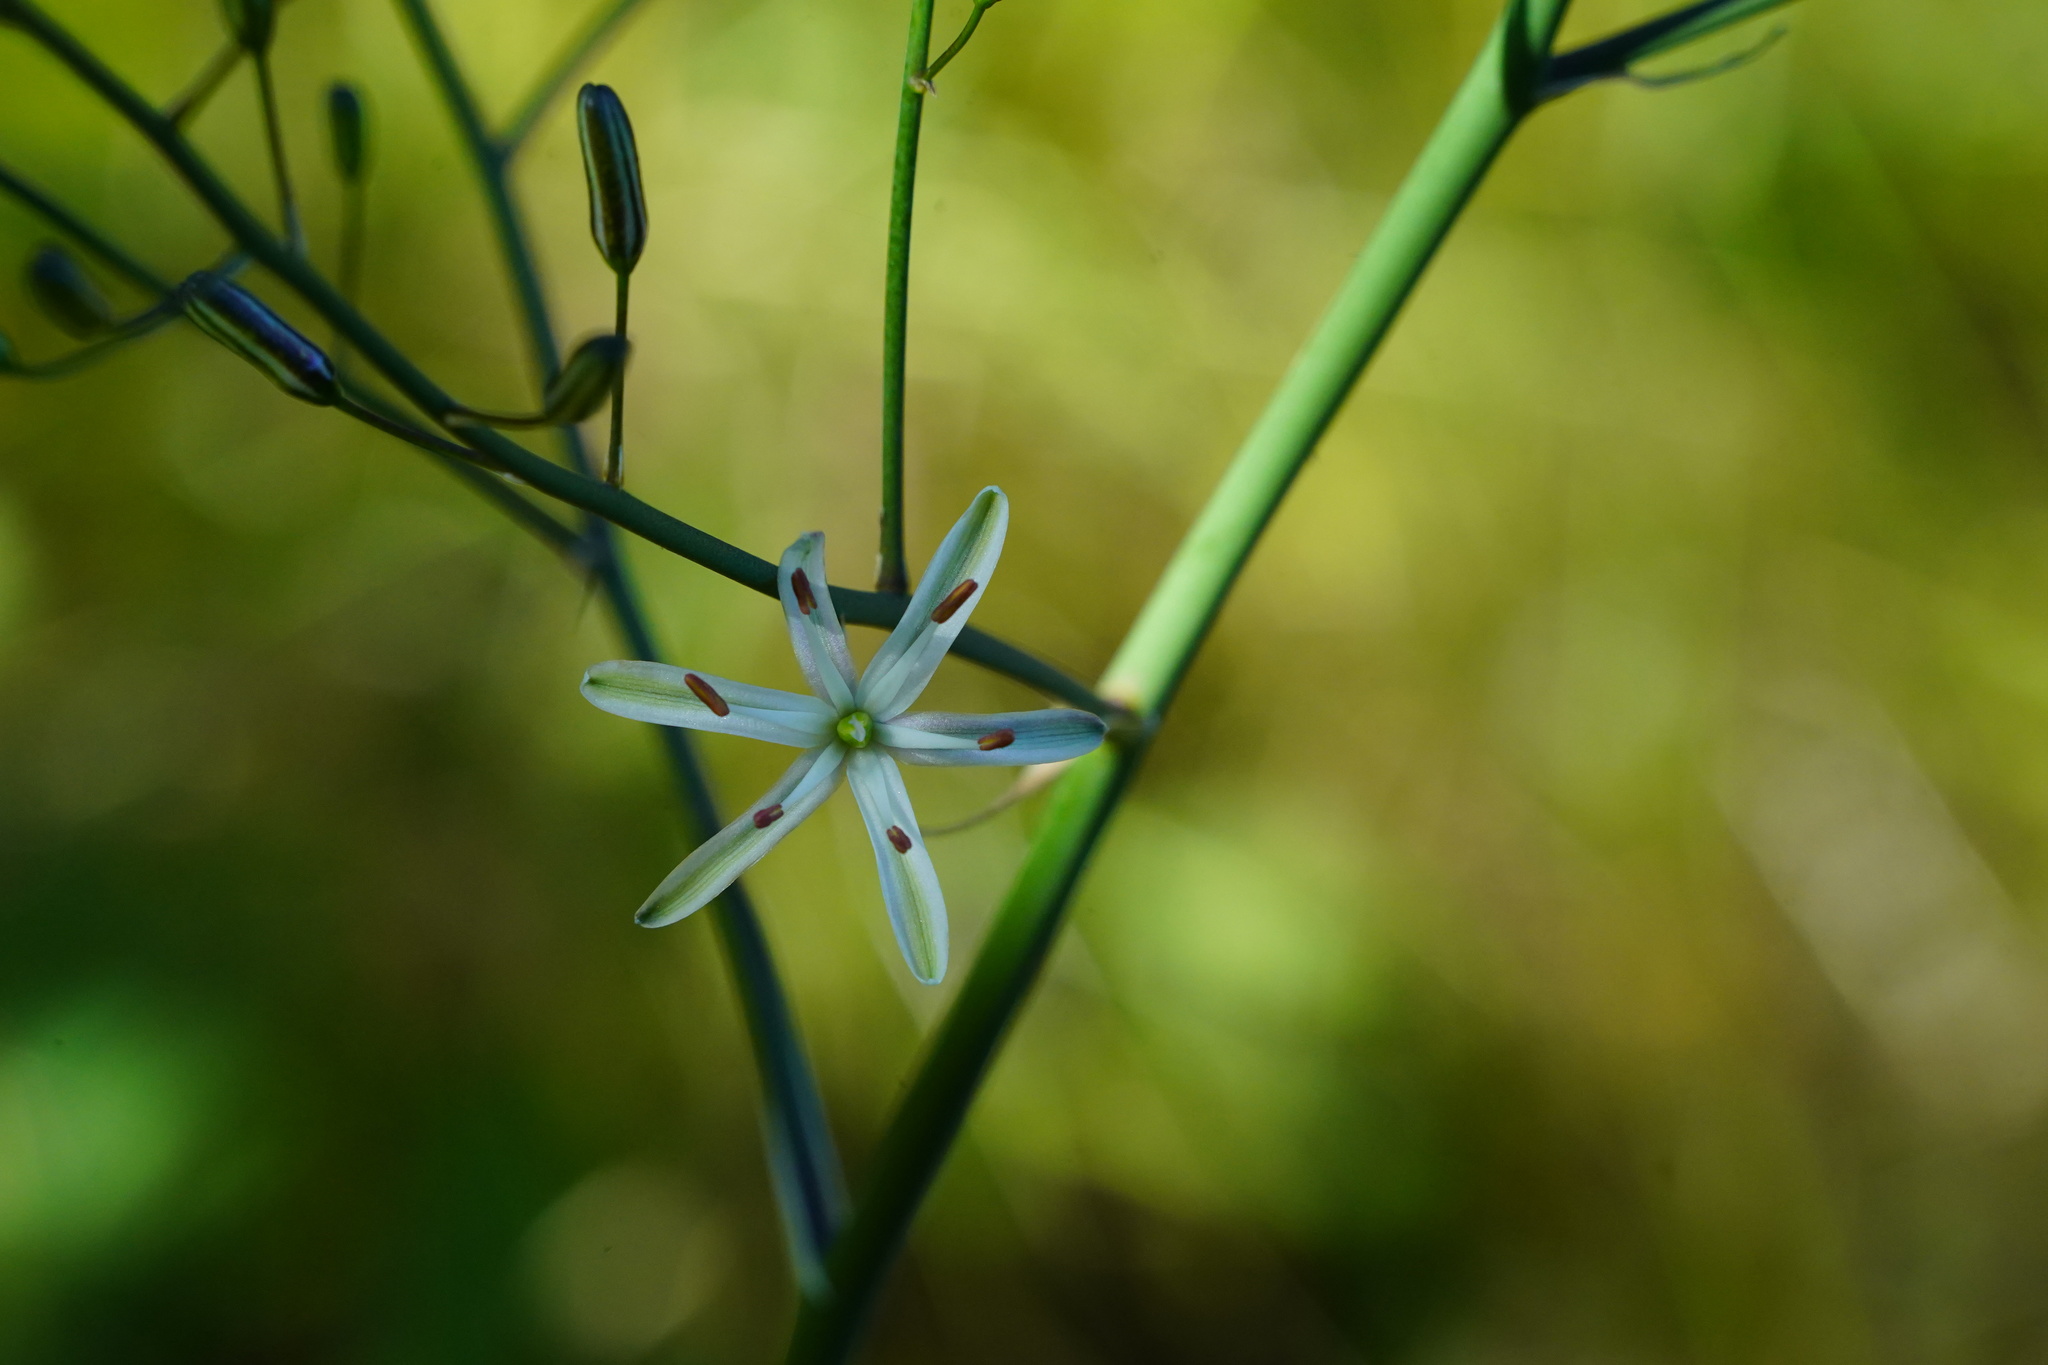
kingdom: Plantae
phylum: Tracheophyta
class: Liliopsida
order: Asparagales
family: Asparagaceae
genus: Chlorogalum
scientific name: Chlorogalum pomeridianum
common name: Amole
